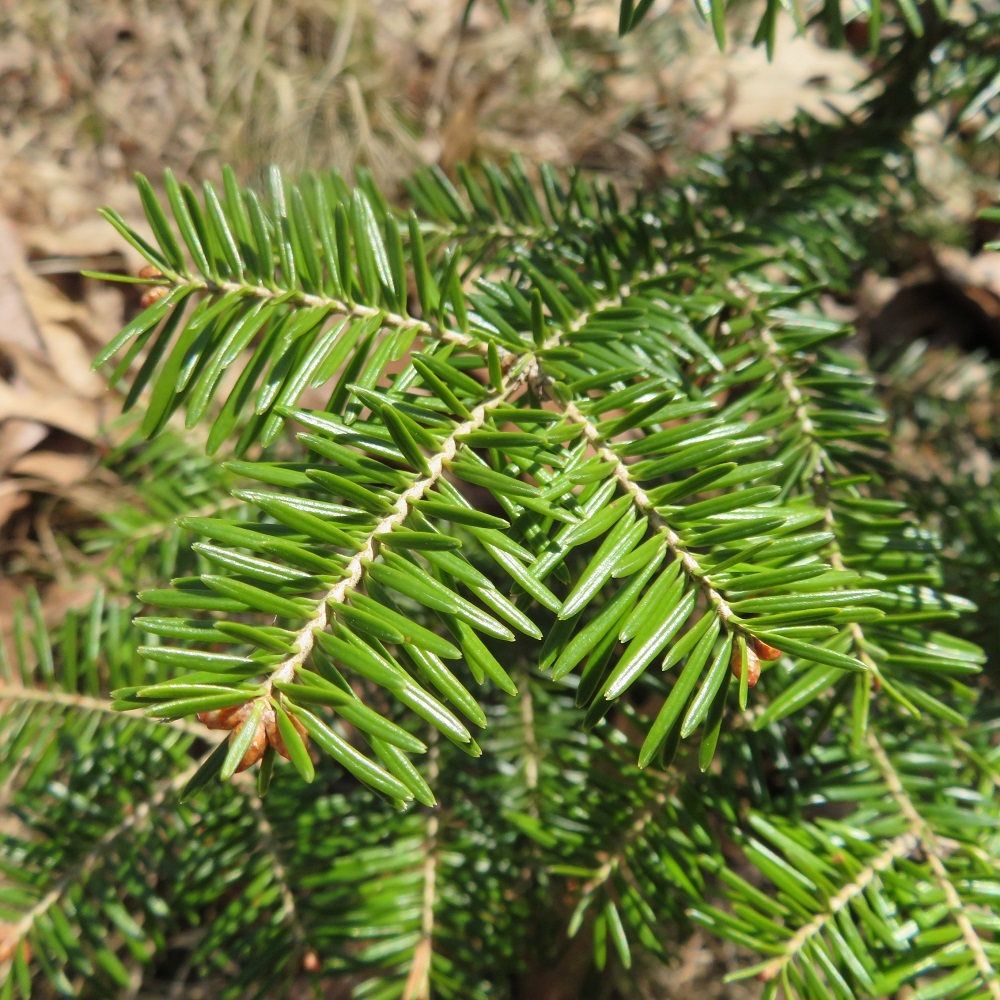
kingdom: Plantae
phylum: Tracheophyta
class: Pinopsida
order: Pinales
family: Pinaceae
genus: Abies
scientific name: Abies balsamea
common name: Balsam fir
